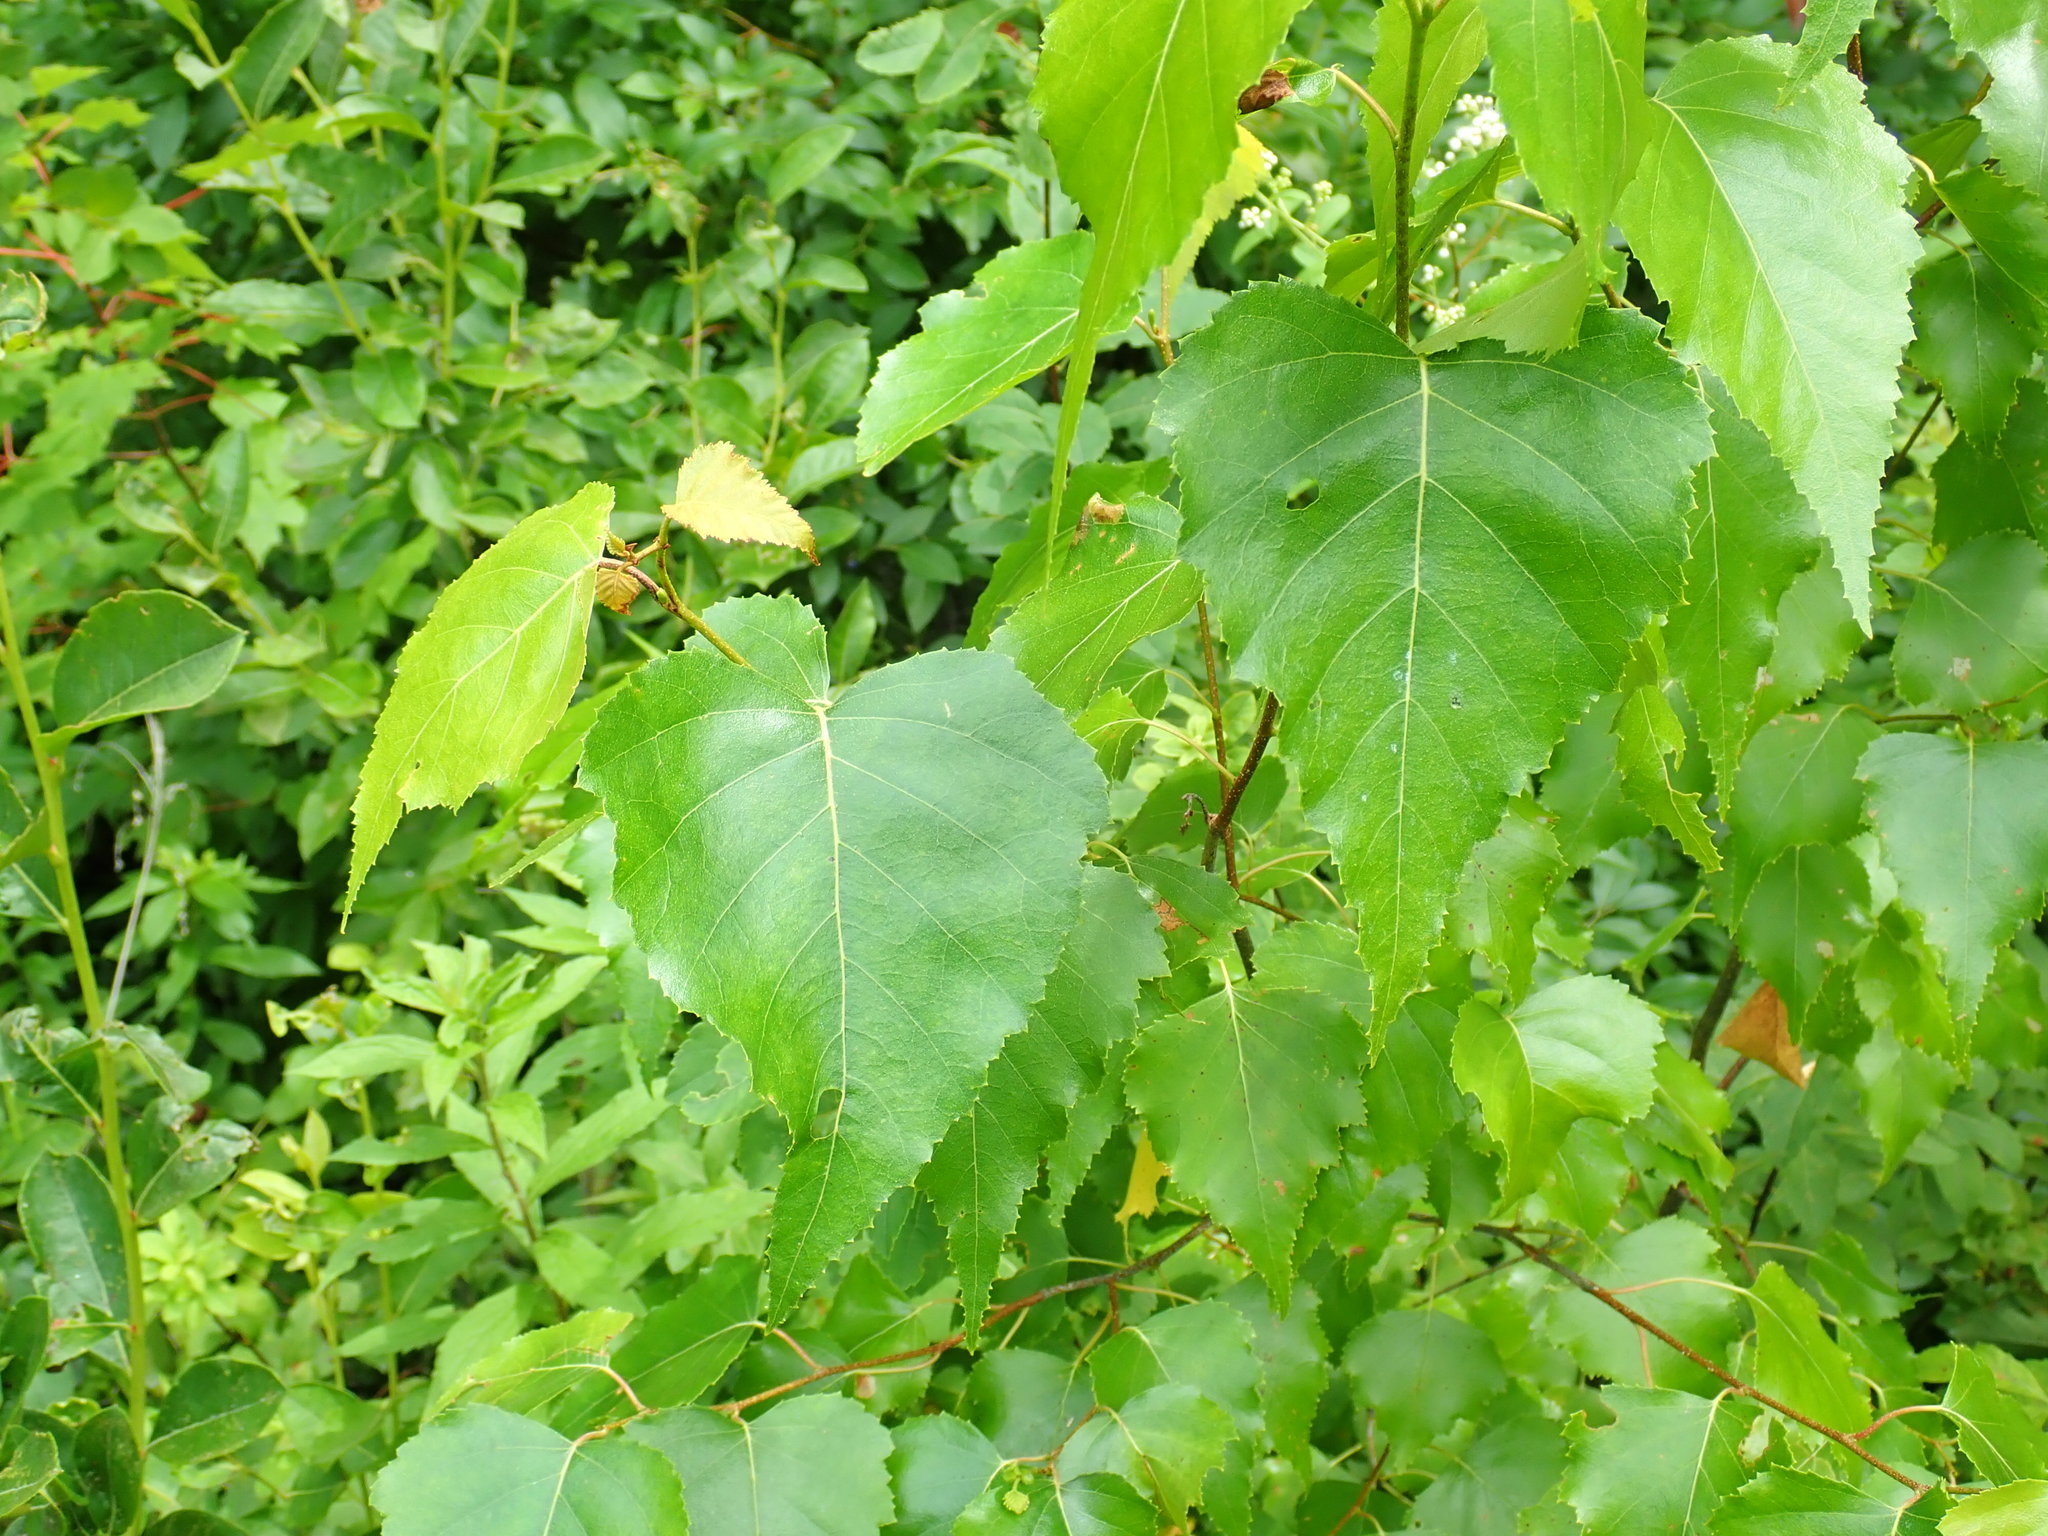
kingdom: Plantae
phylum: Tracheophyta
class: Magnoliopsida
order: Fagales
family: Betulaceae
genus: Betula
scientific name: Betula populifolia
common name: Fire birch
